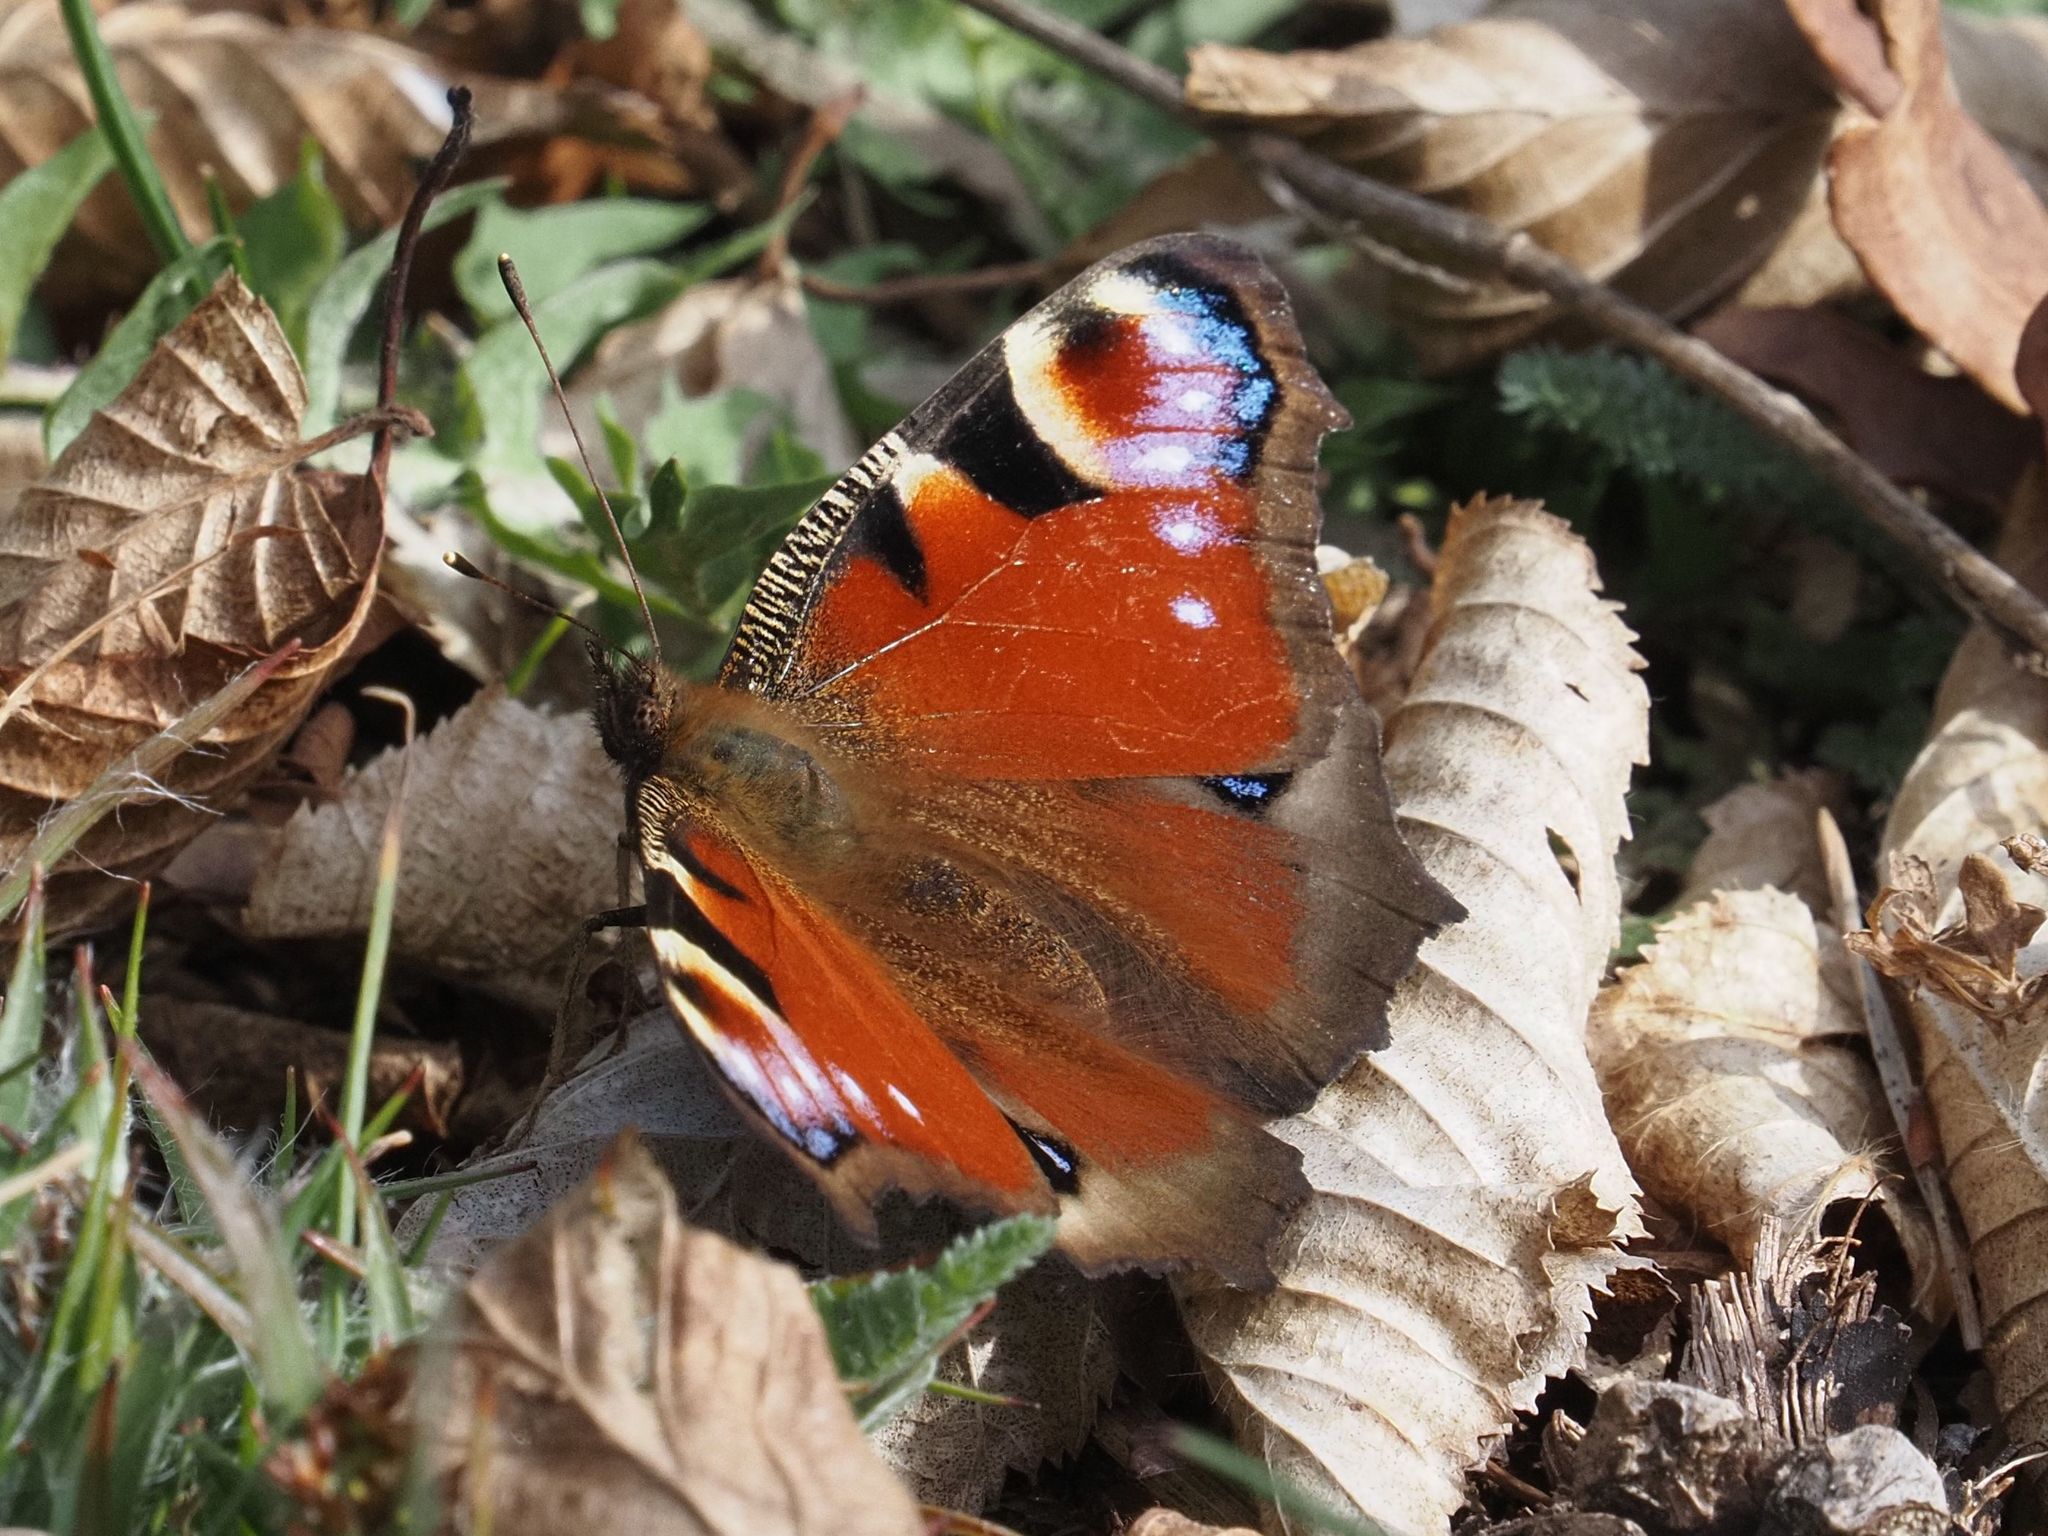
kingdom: Animalia
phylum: Arthropoda
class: Insecta
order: Lepidoptera
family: Nymphalidae
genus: Aglais
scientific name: Aglais io
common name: Peacock
